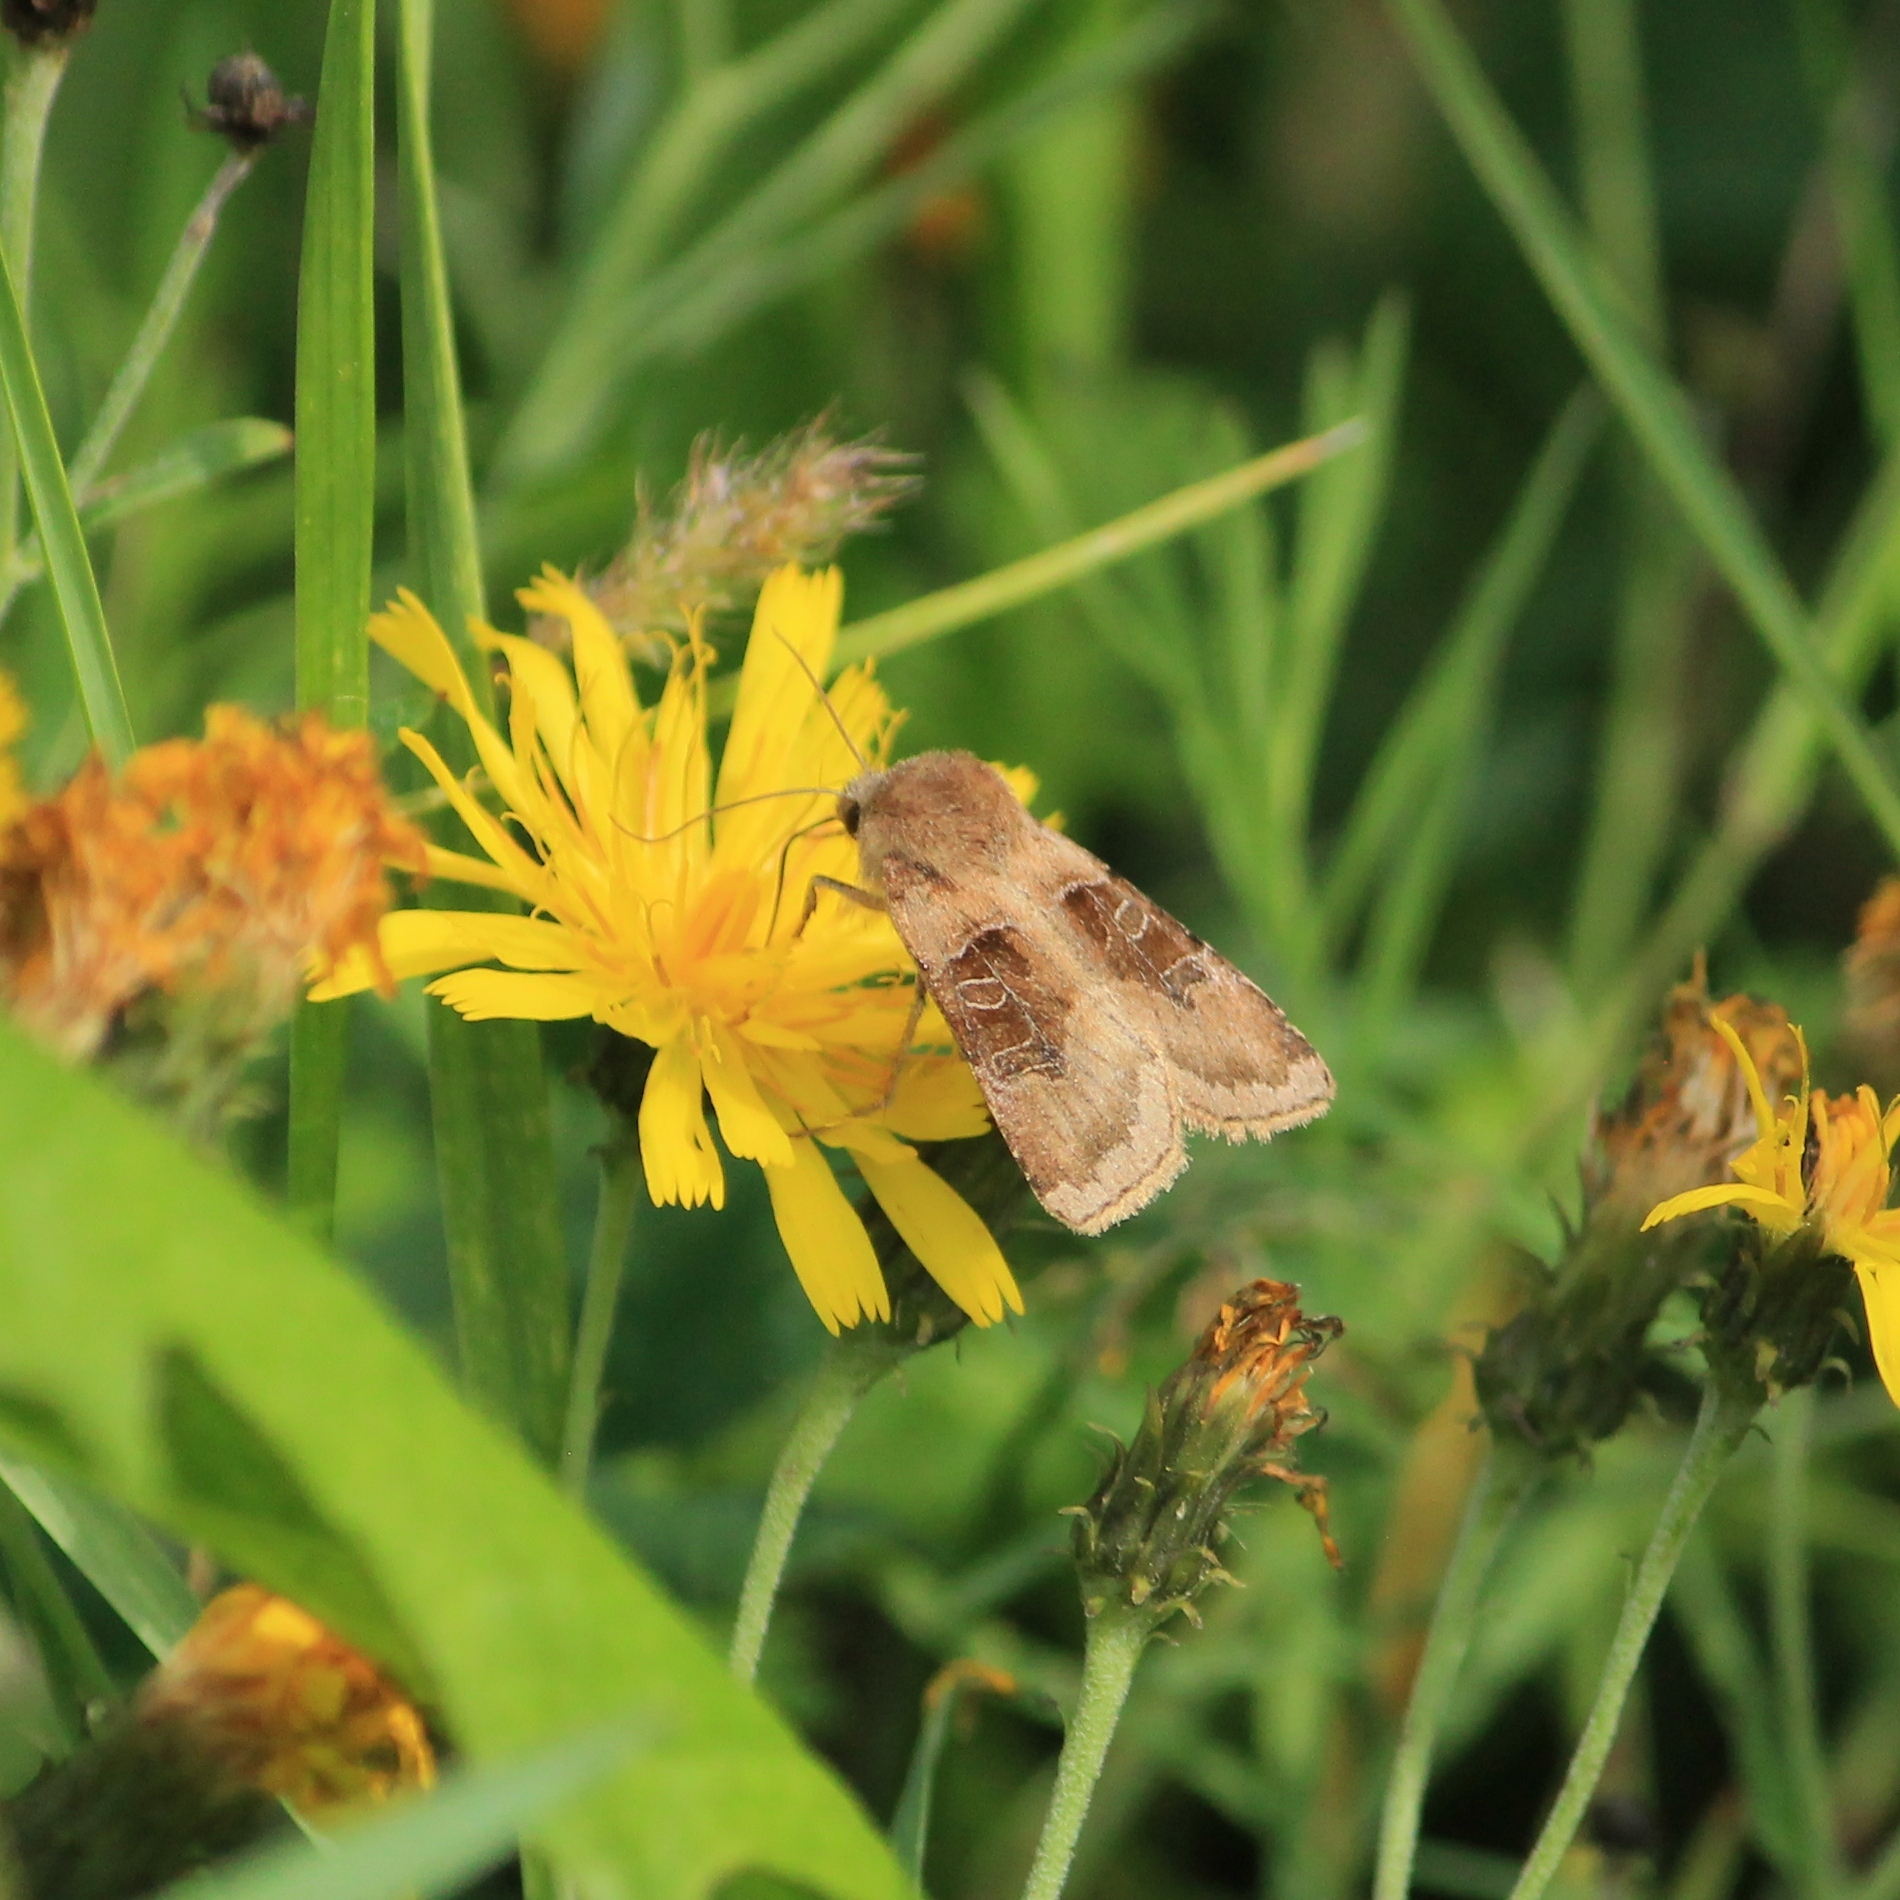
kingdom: Animalia
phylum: Arthropoda
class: Insecta
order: Lepidoptera
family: Noctuidae
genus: Chersotis
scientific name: Chersotis cuprea
